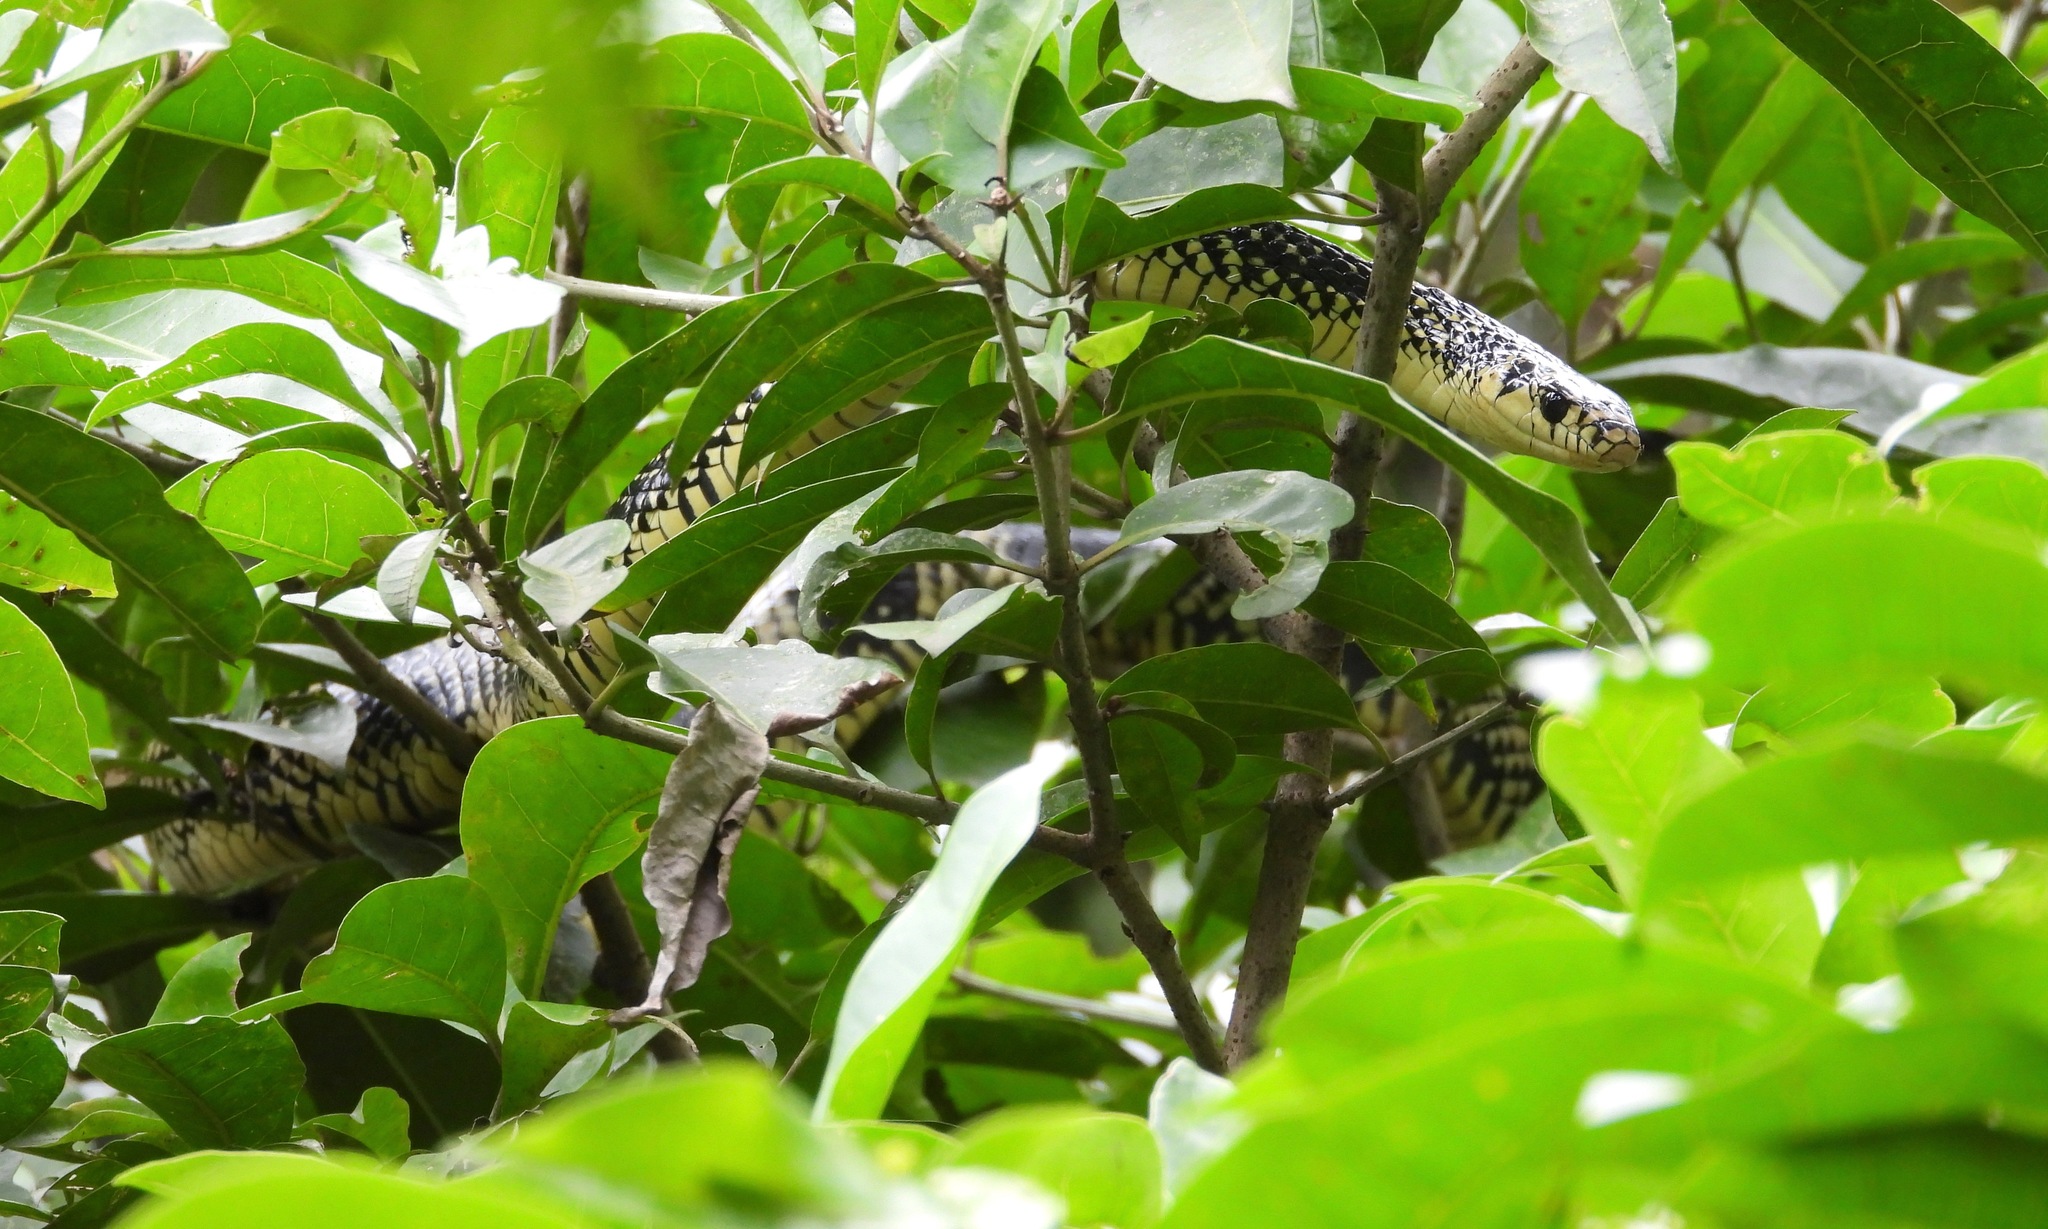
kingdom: Animalia
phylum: Chordata
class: Squamata
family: Colubridae
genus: Spilotes
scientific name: Spilotes pullatus
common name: Chicken snake
